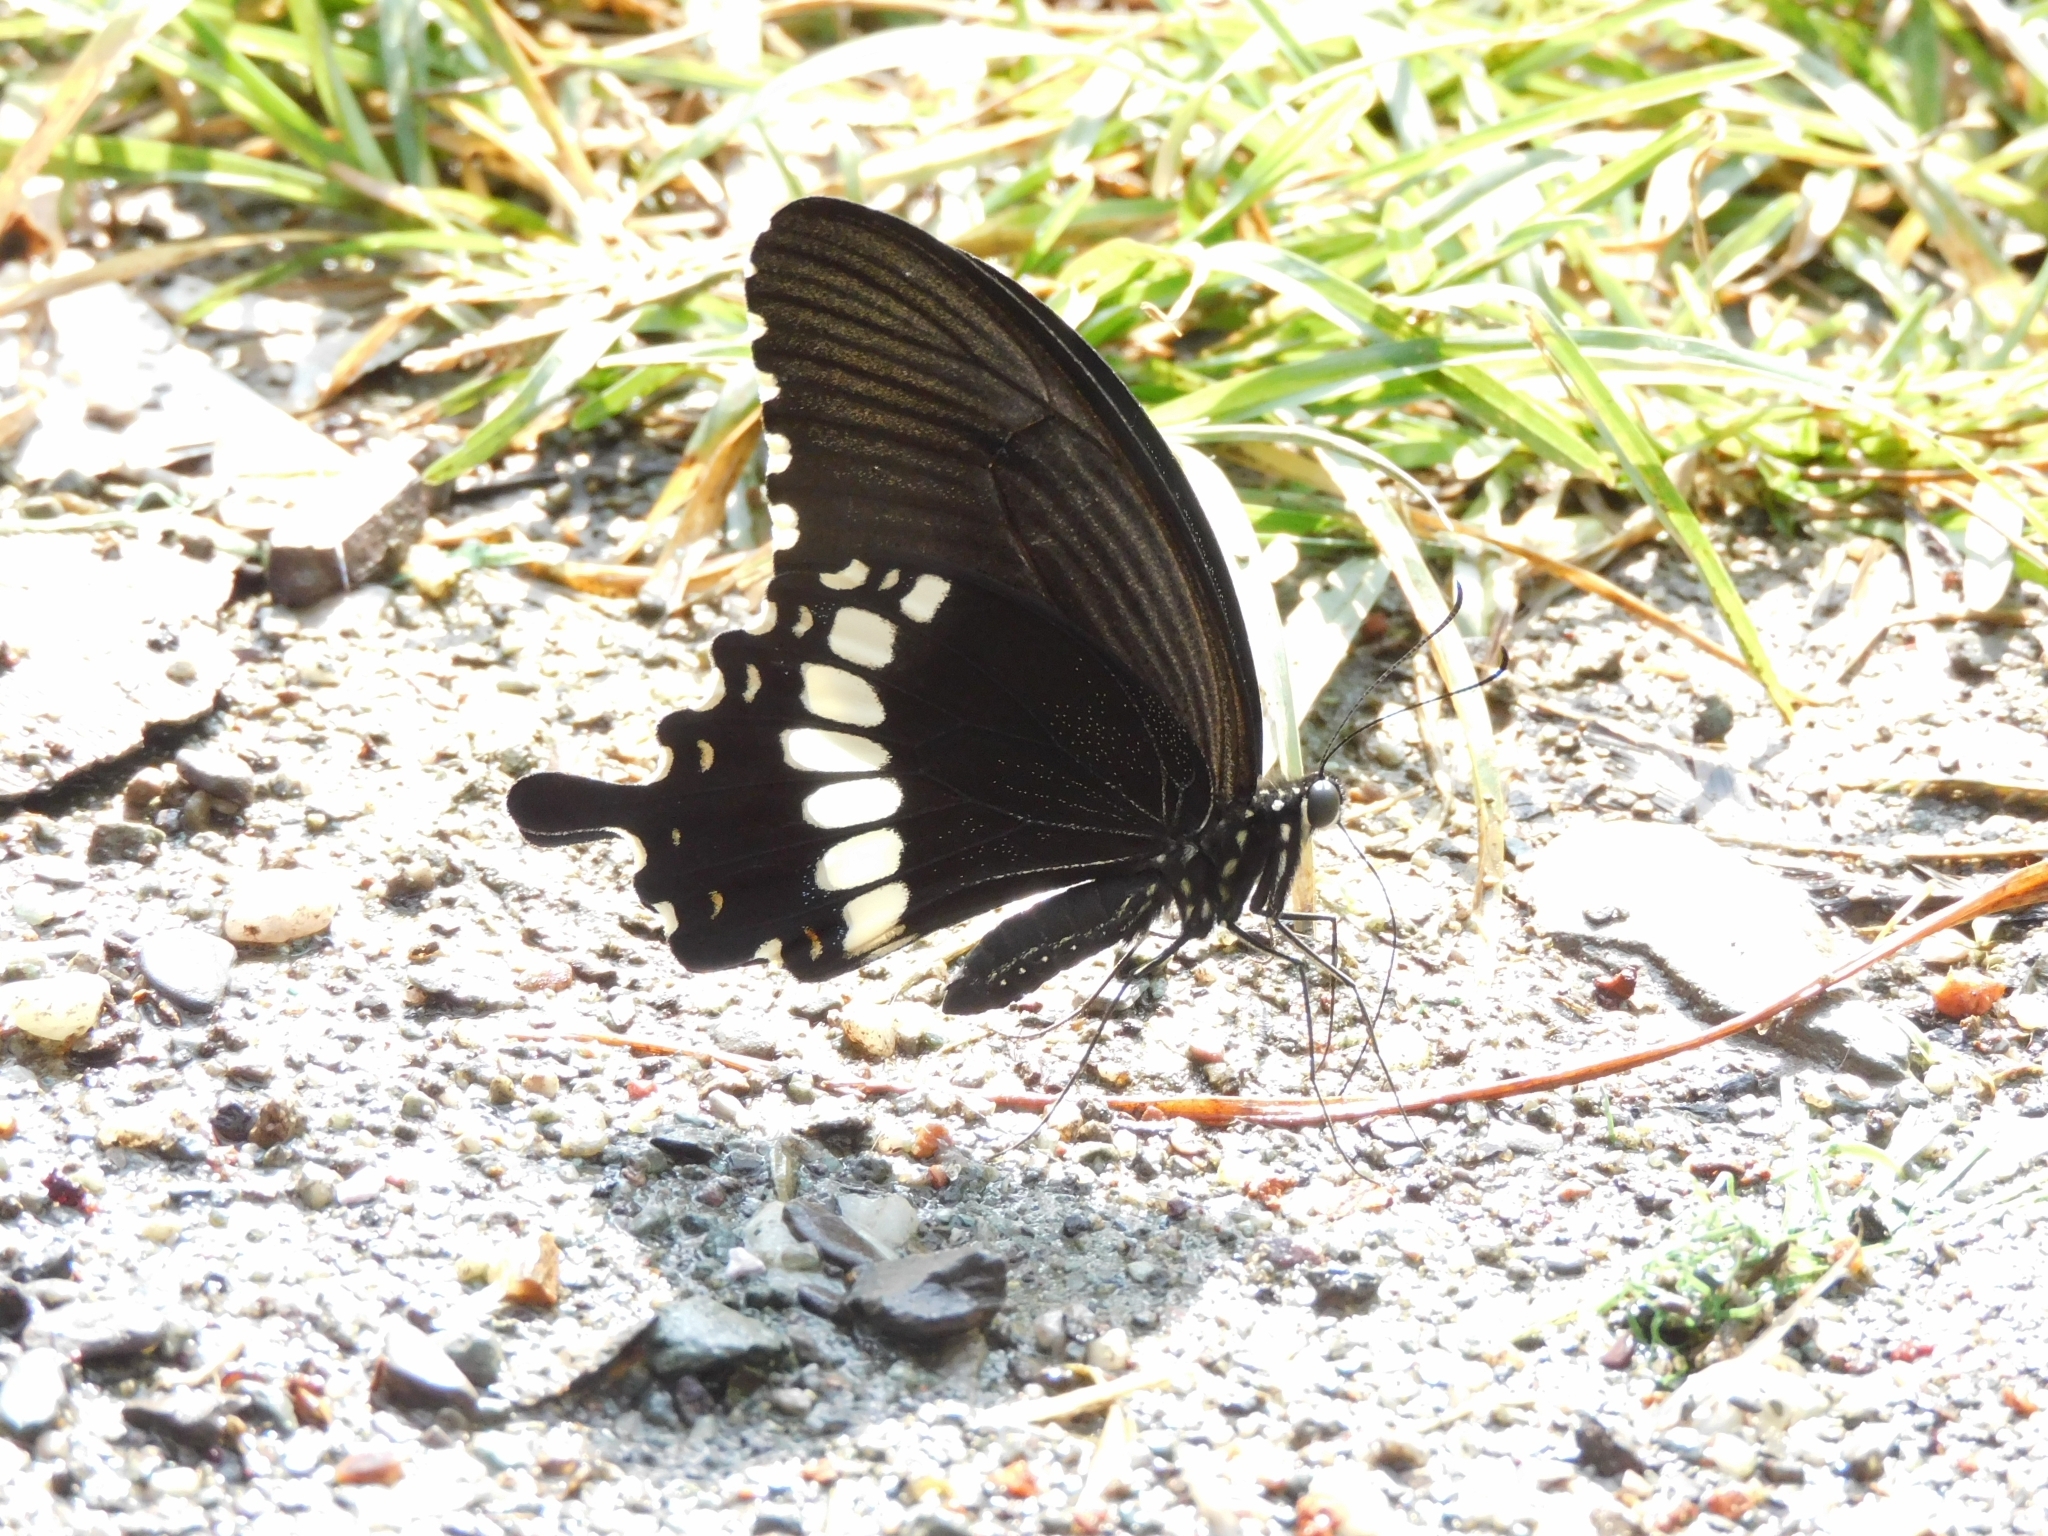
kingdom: Animalia
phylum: Arthropoda
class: Insecta
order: Lepidoptera
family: Papilionidae
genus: Papilio
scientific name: Papilio polytes
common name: Common mormon
